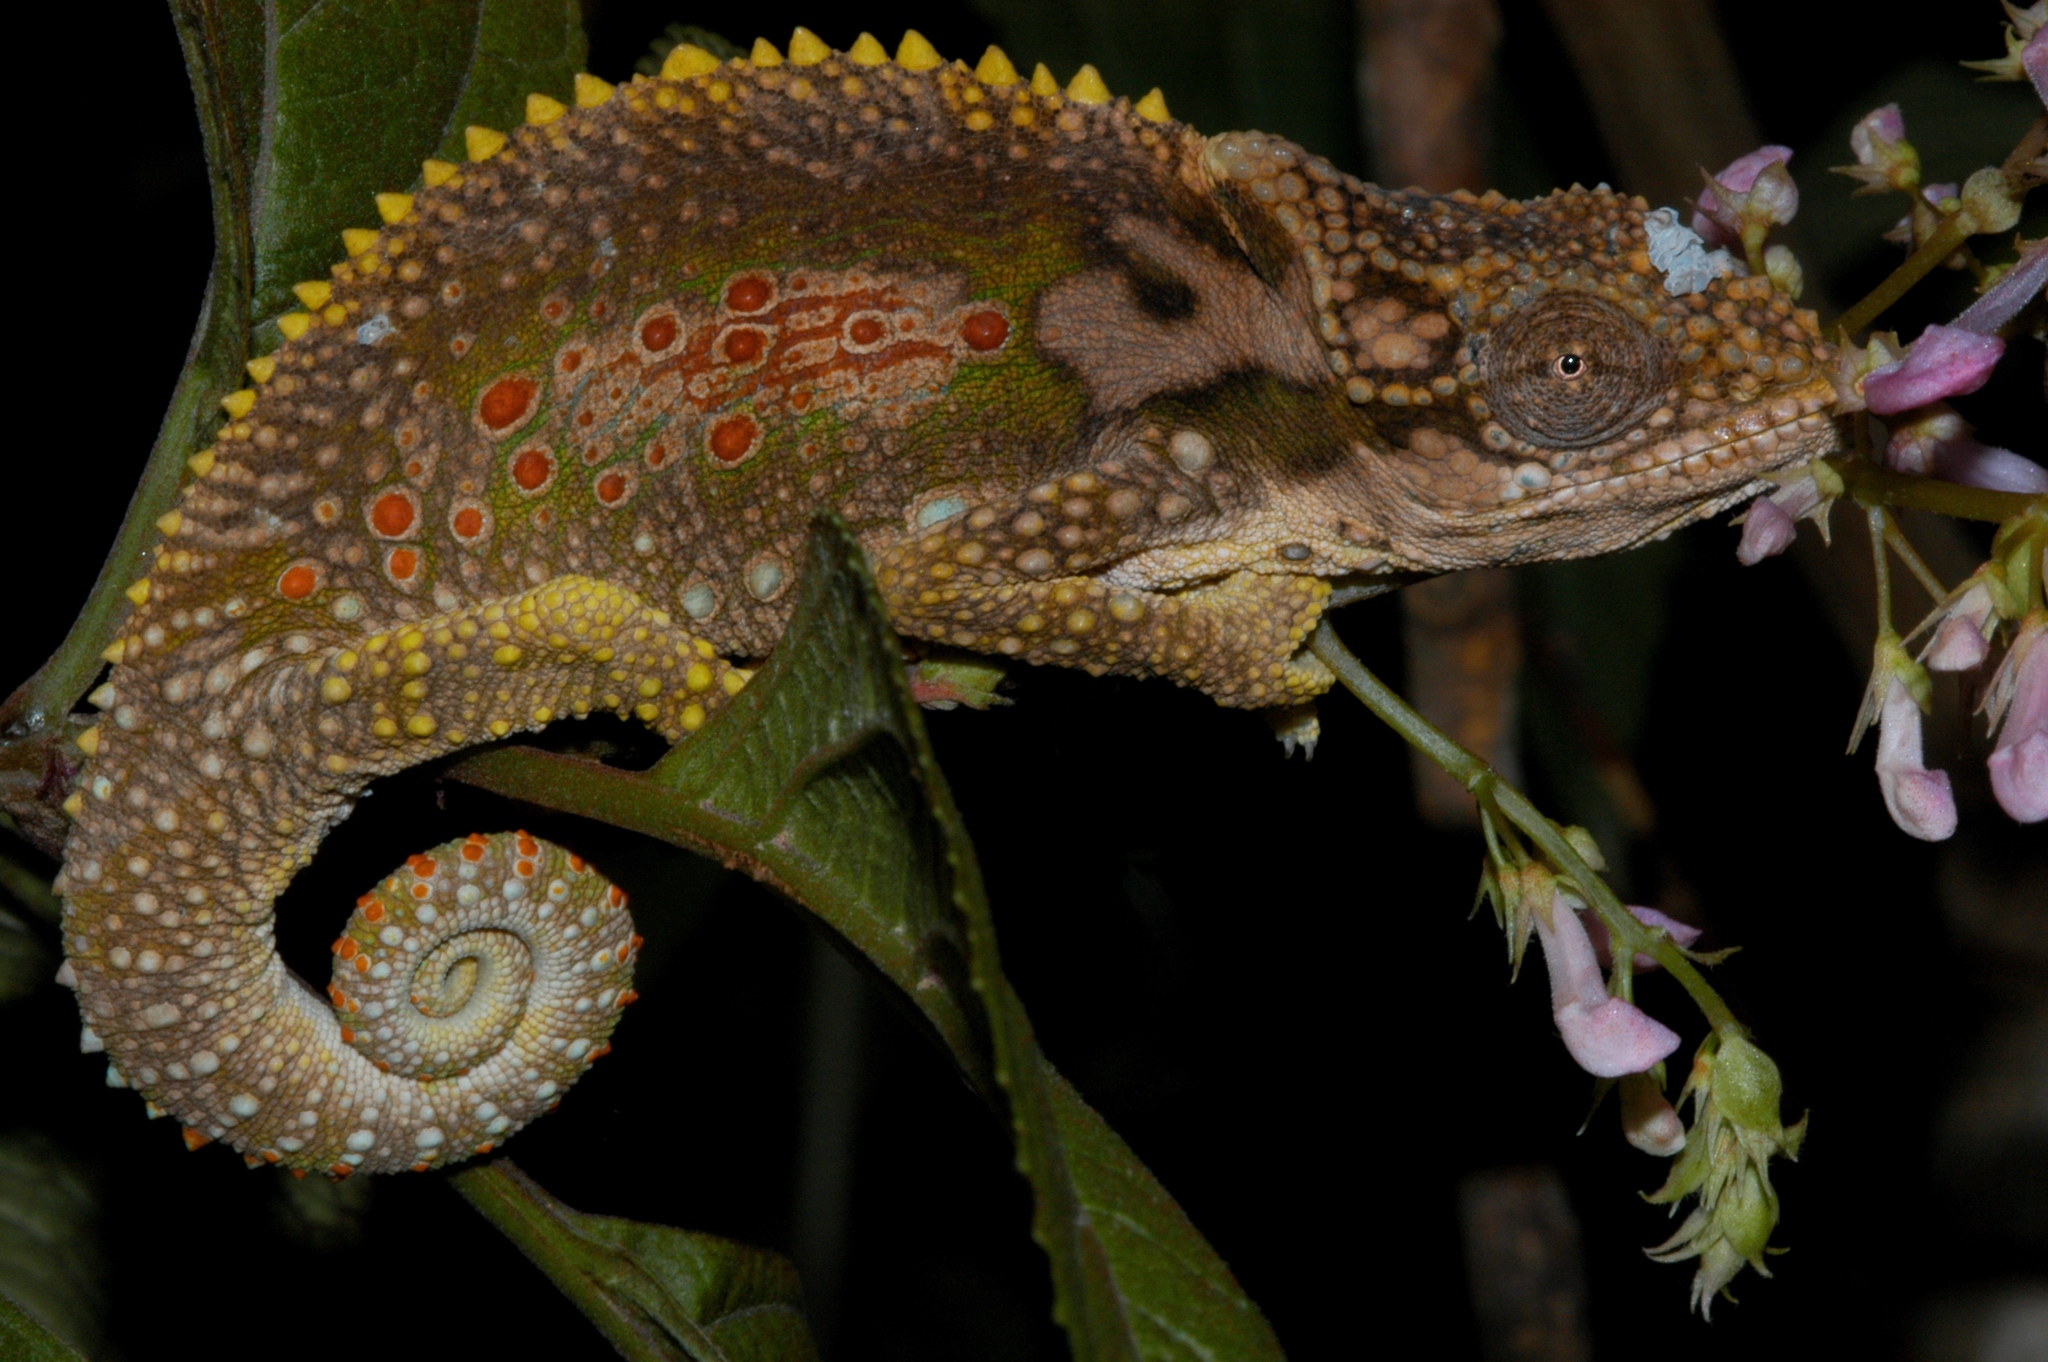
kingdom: Animalia
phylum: Chordata
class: Squamata
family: Chamaeleonidae
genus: Bradypodion
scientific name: Bradypodion ventrale
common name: Eastern cape dwarf chameleon
